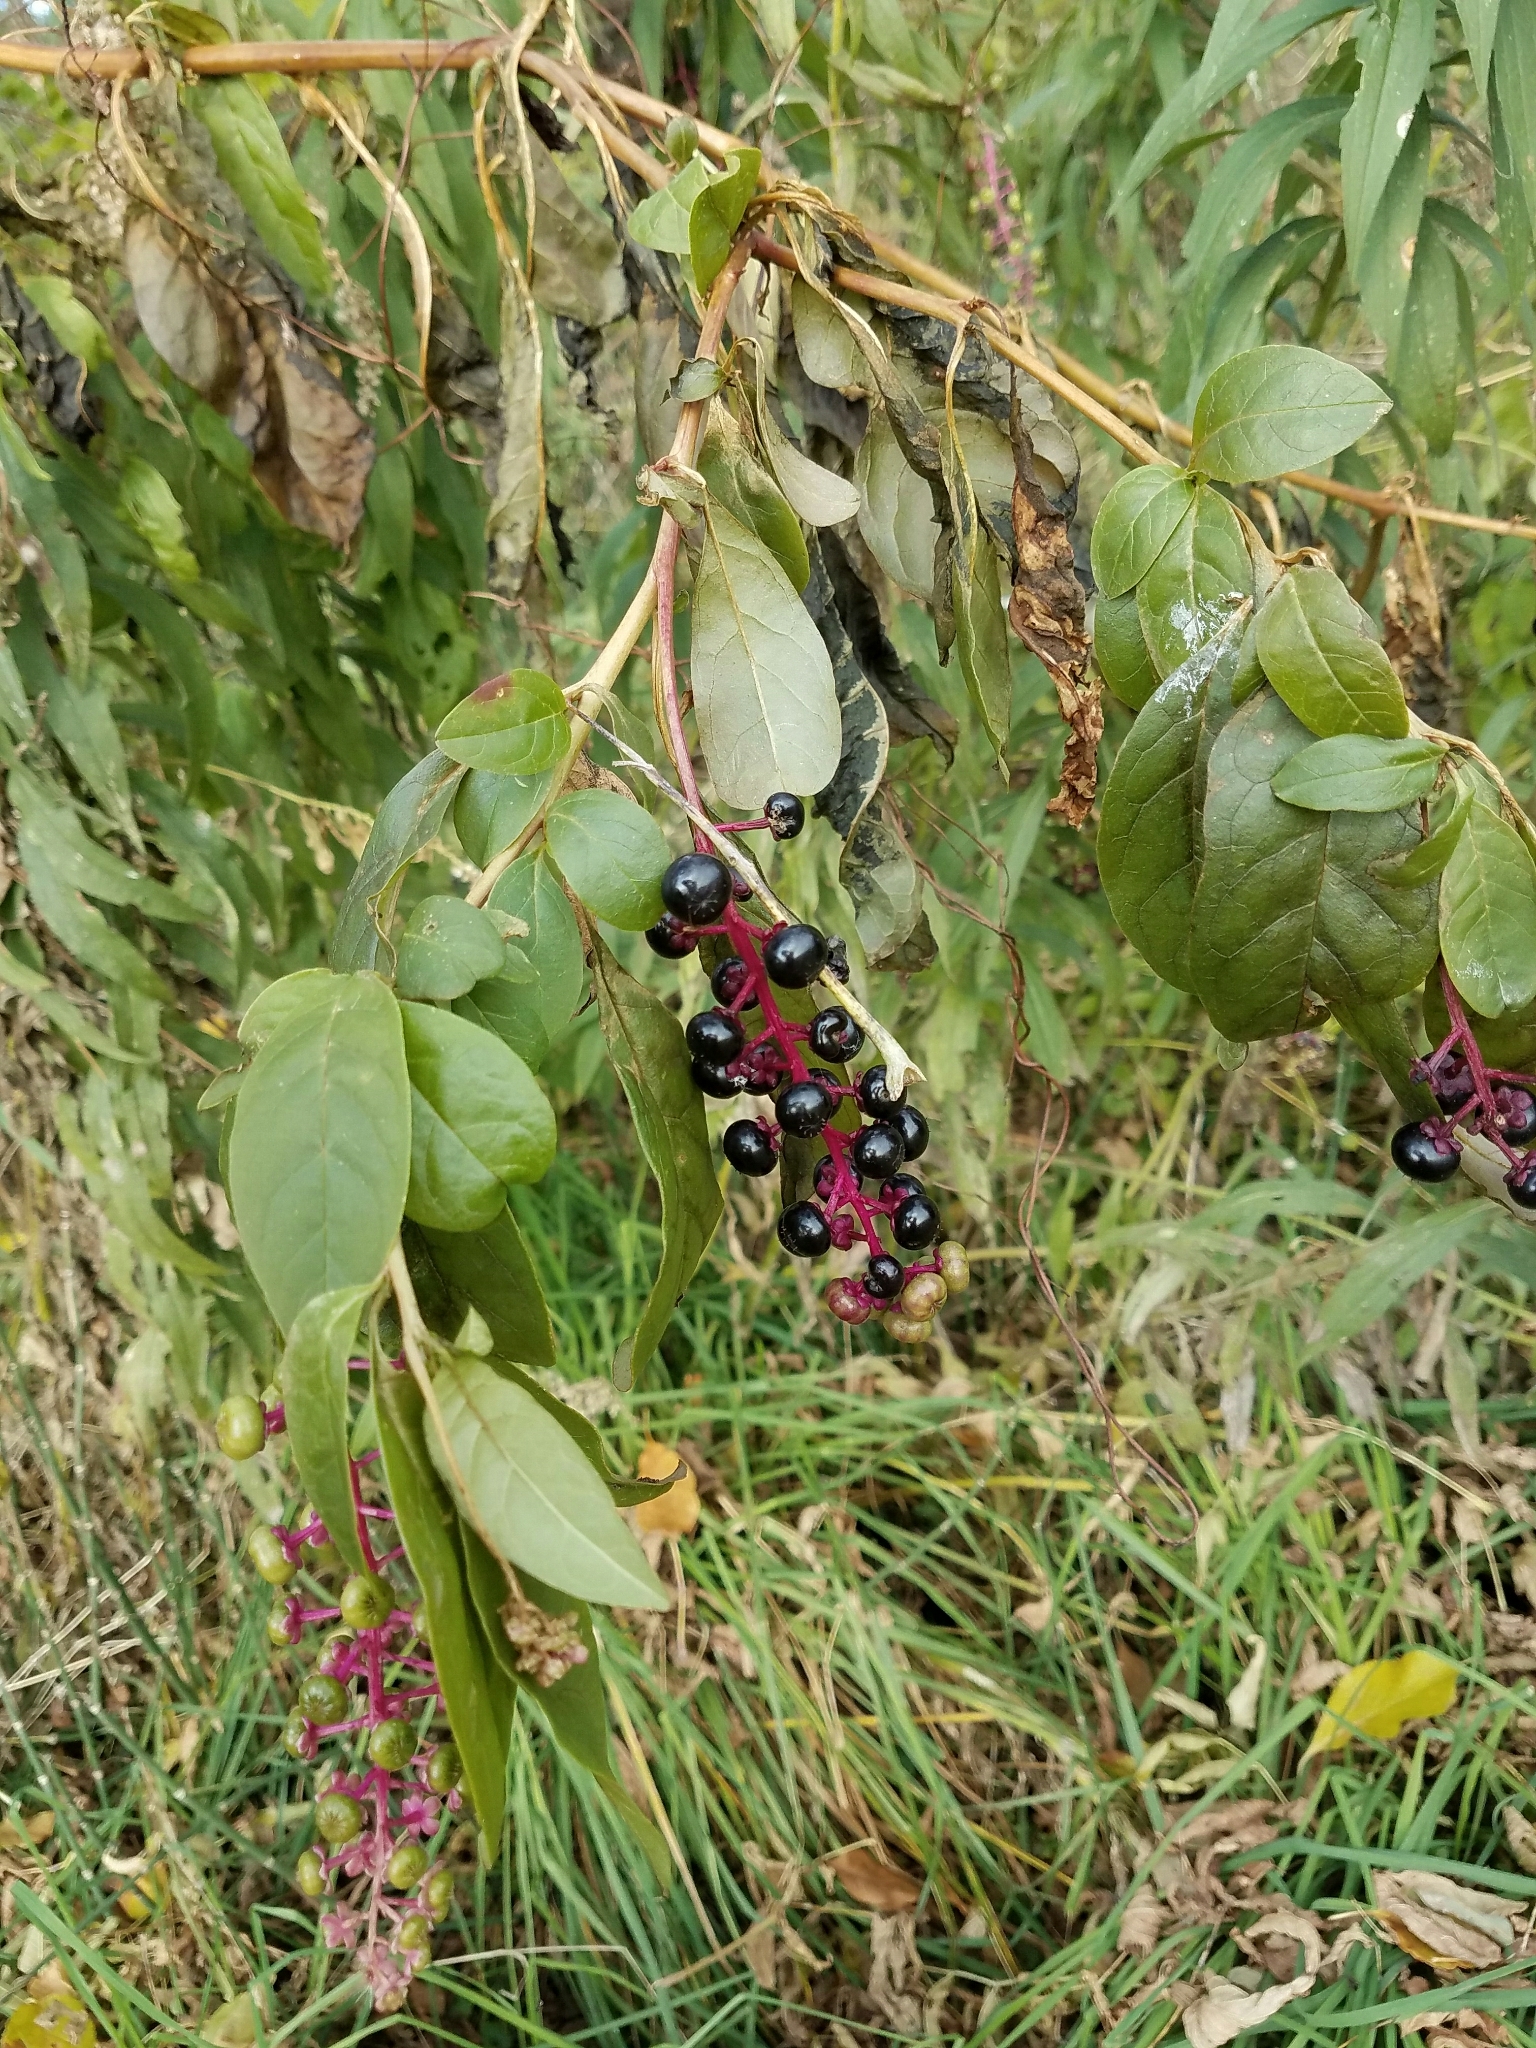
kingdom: Plantae
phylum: Tracheophyta
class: Magnoliopsida
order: Caryophyllales
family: Phytolaccaceae
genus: Phytolacca
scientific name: Phytolacca americana
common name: American pokeweed
